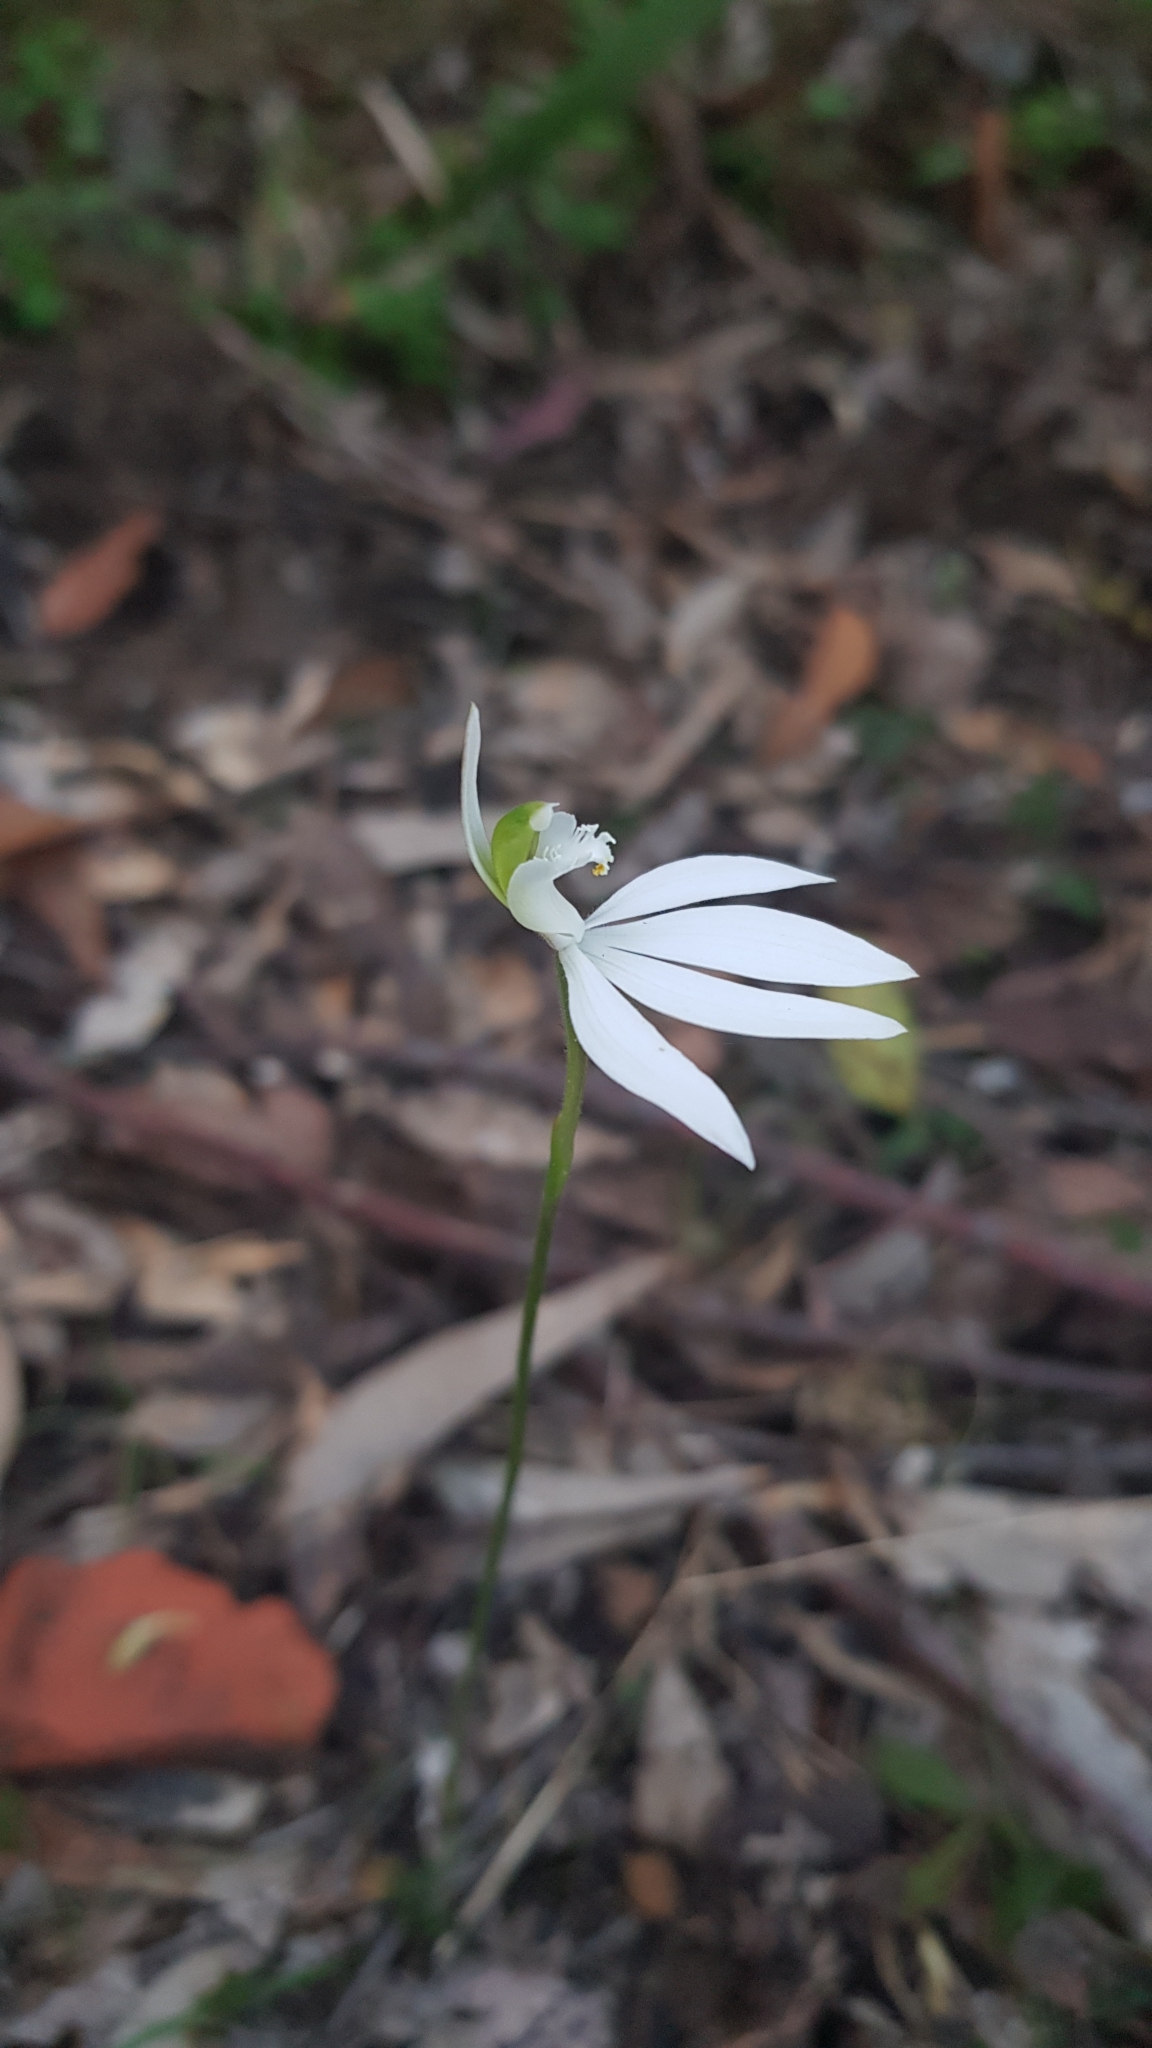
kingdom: Plantae
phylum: Tracheophyta
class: Liliopsida
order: Asparagales
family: Orchidaceae
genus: Caladenia
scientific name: Caladenia catenata
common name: White caladenia
